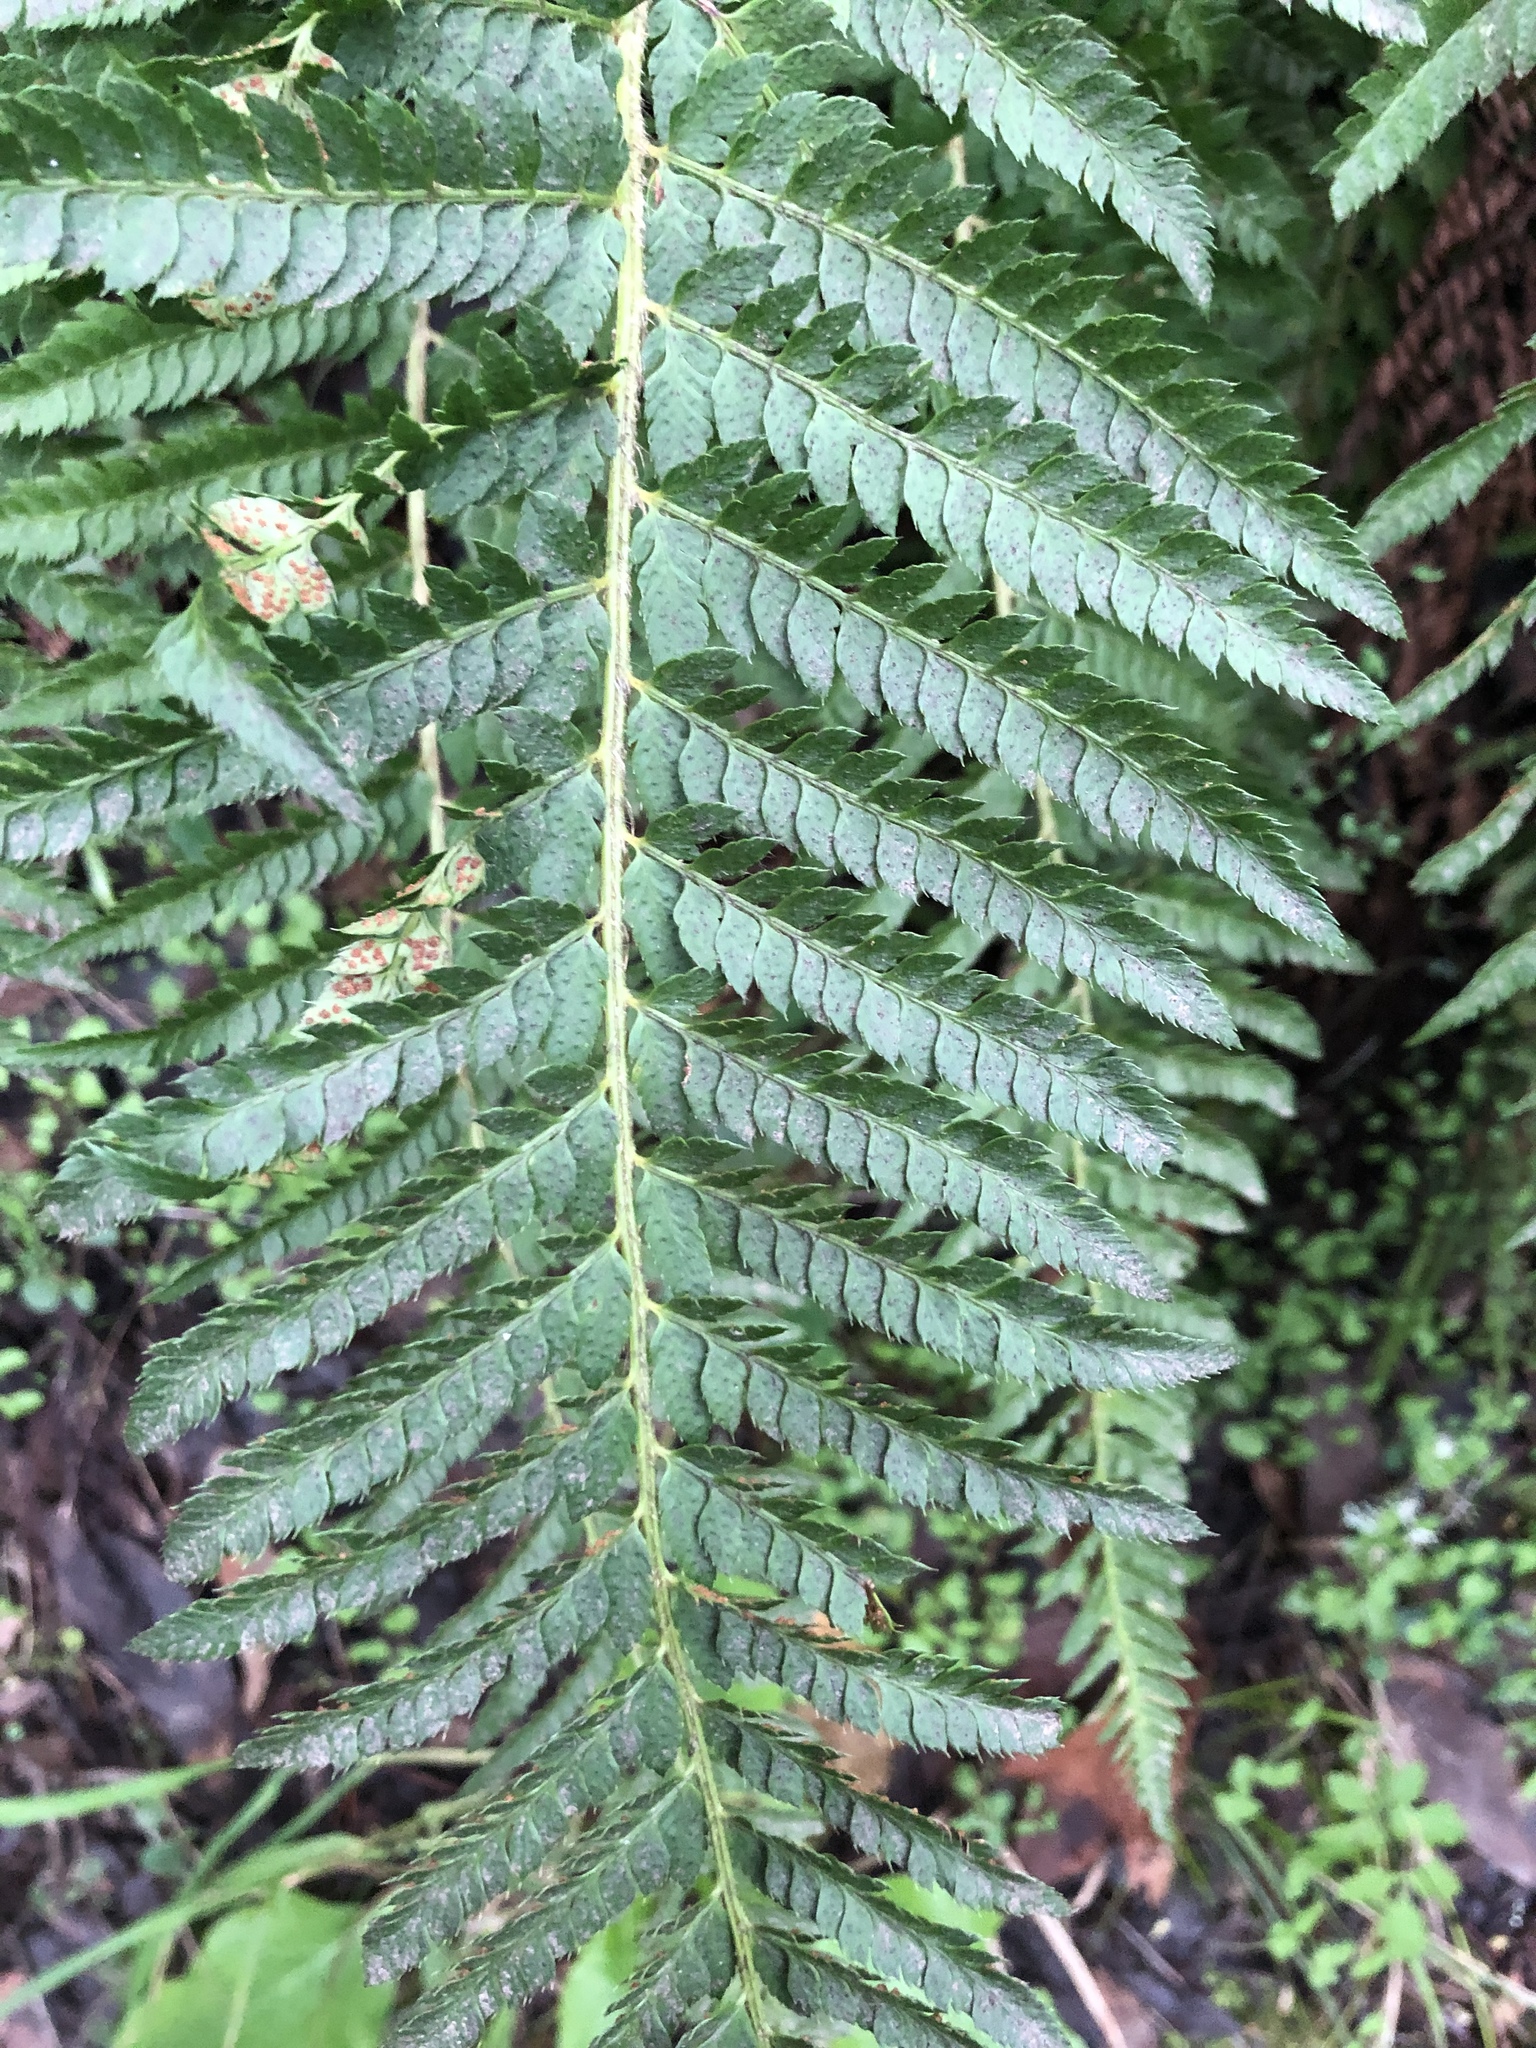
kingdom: Plantae
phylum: Tracheophyta
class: Polypodiopsida
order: Polypodiales
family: Dryopteridaceae
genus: Polystichum
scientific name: Polystichum dudleyi
